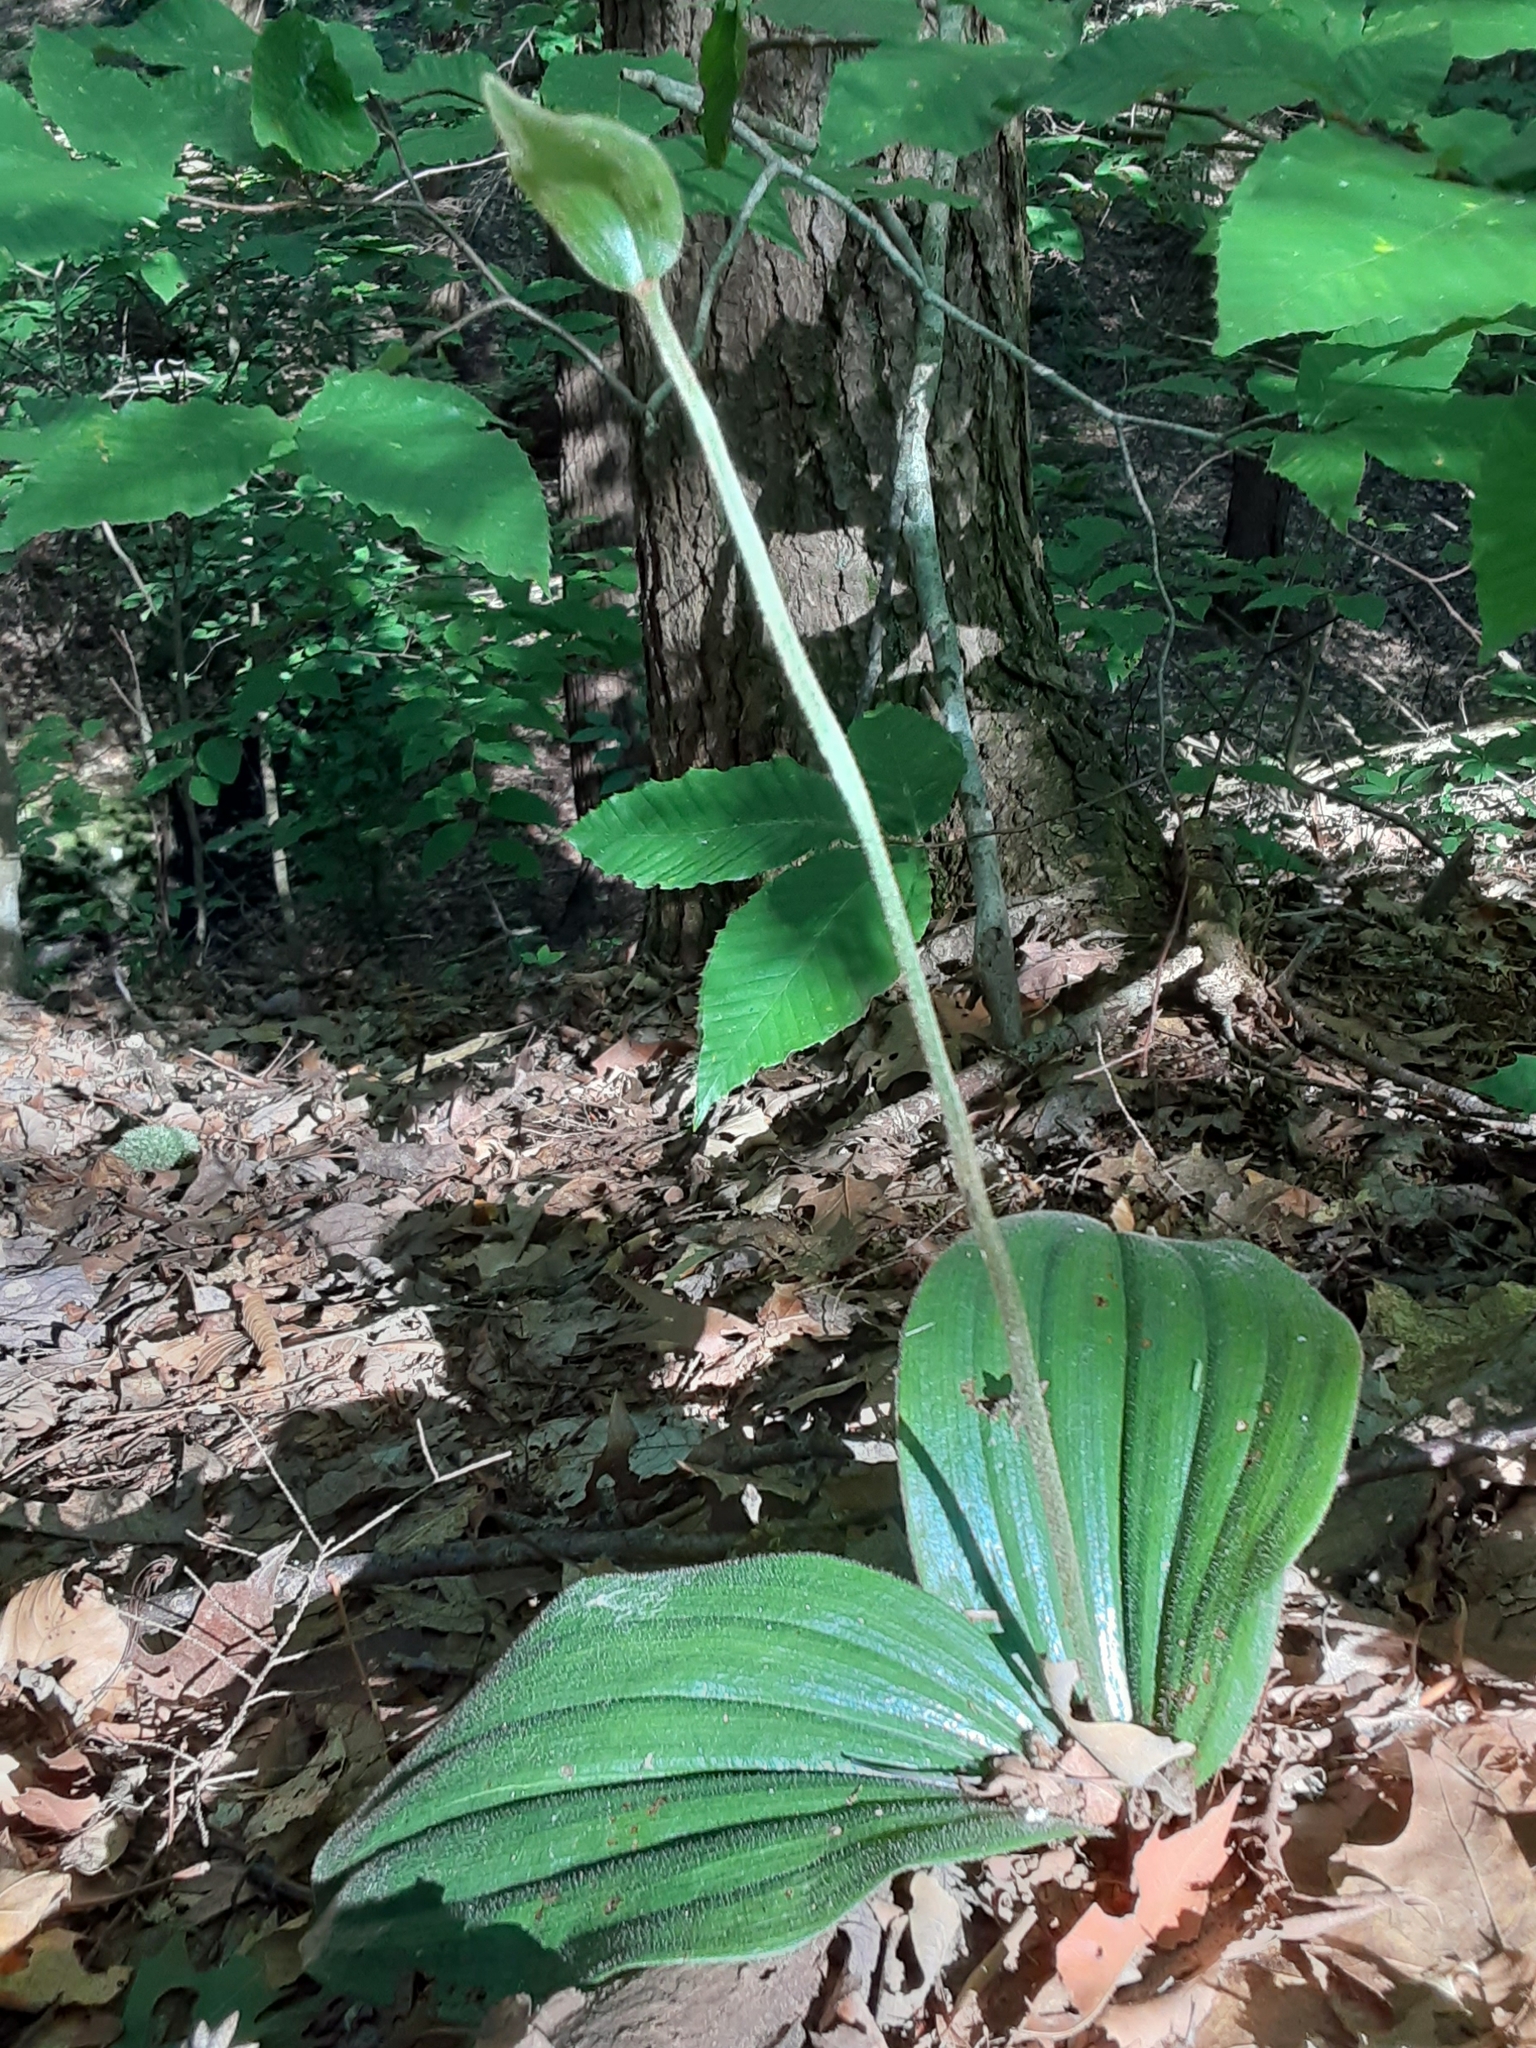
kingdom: Plantae
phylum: Tracheophyta
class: Liliopsida
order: Asparagales
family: Orchidaceae
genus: Cypripedium
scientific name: Cypripedium acaule
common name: Pink lady's-slipper
